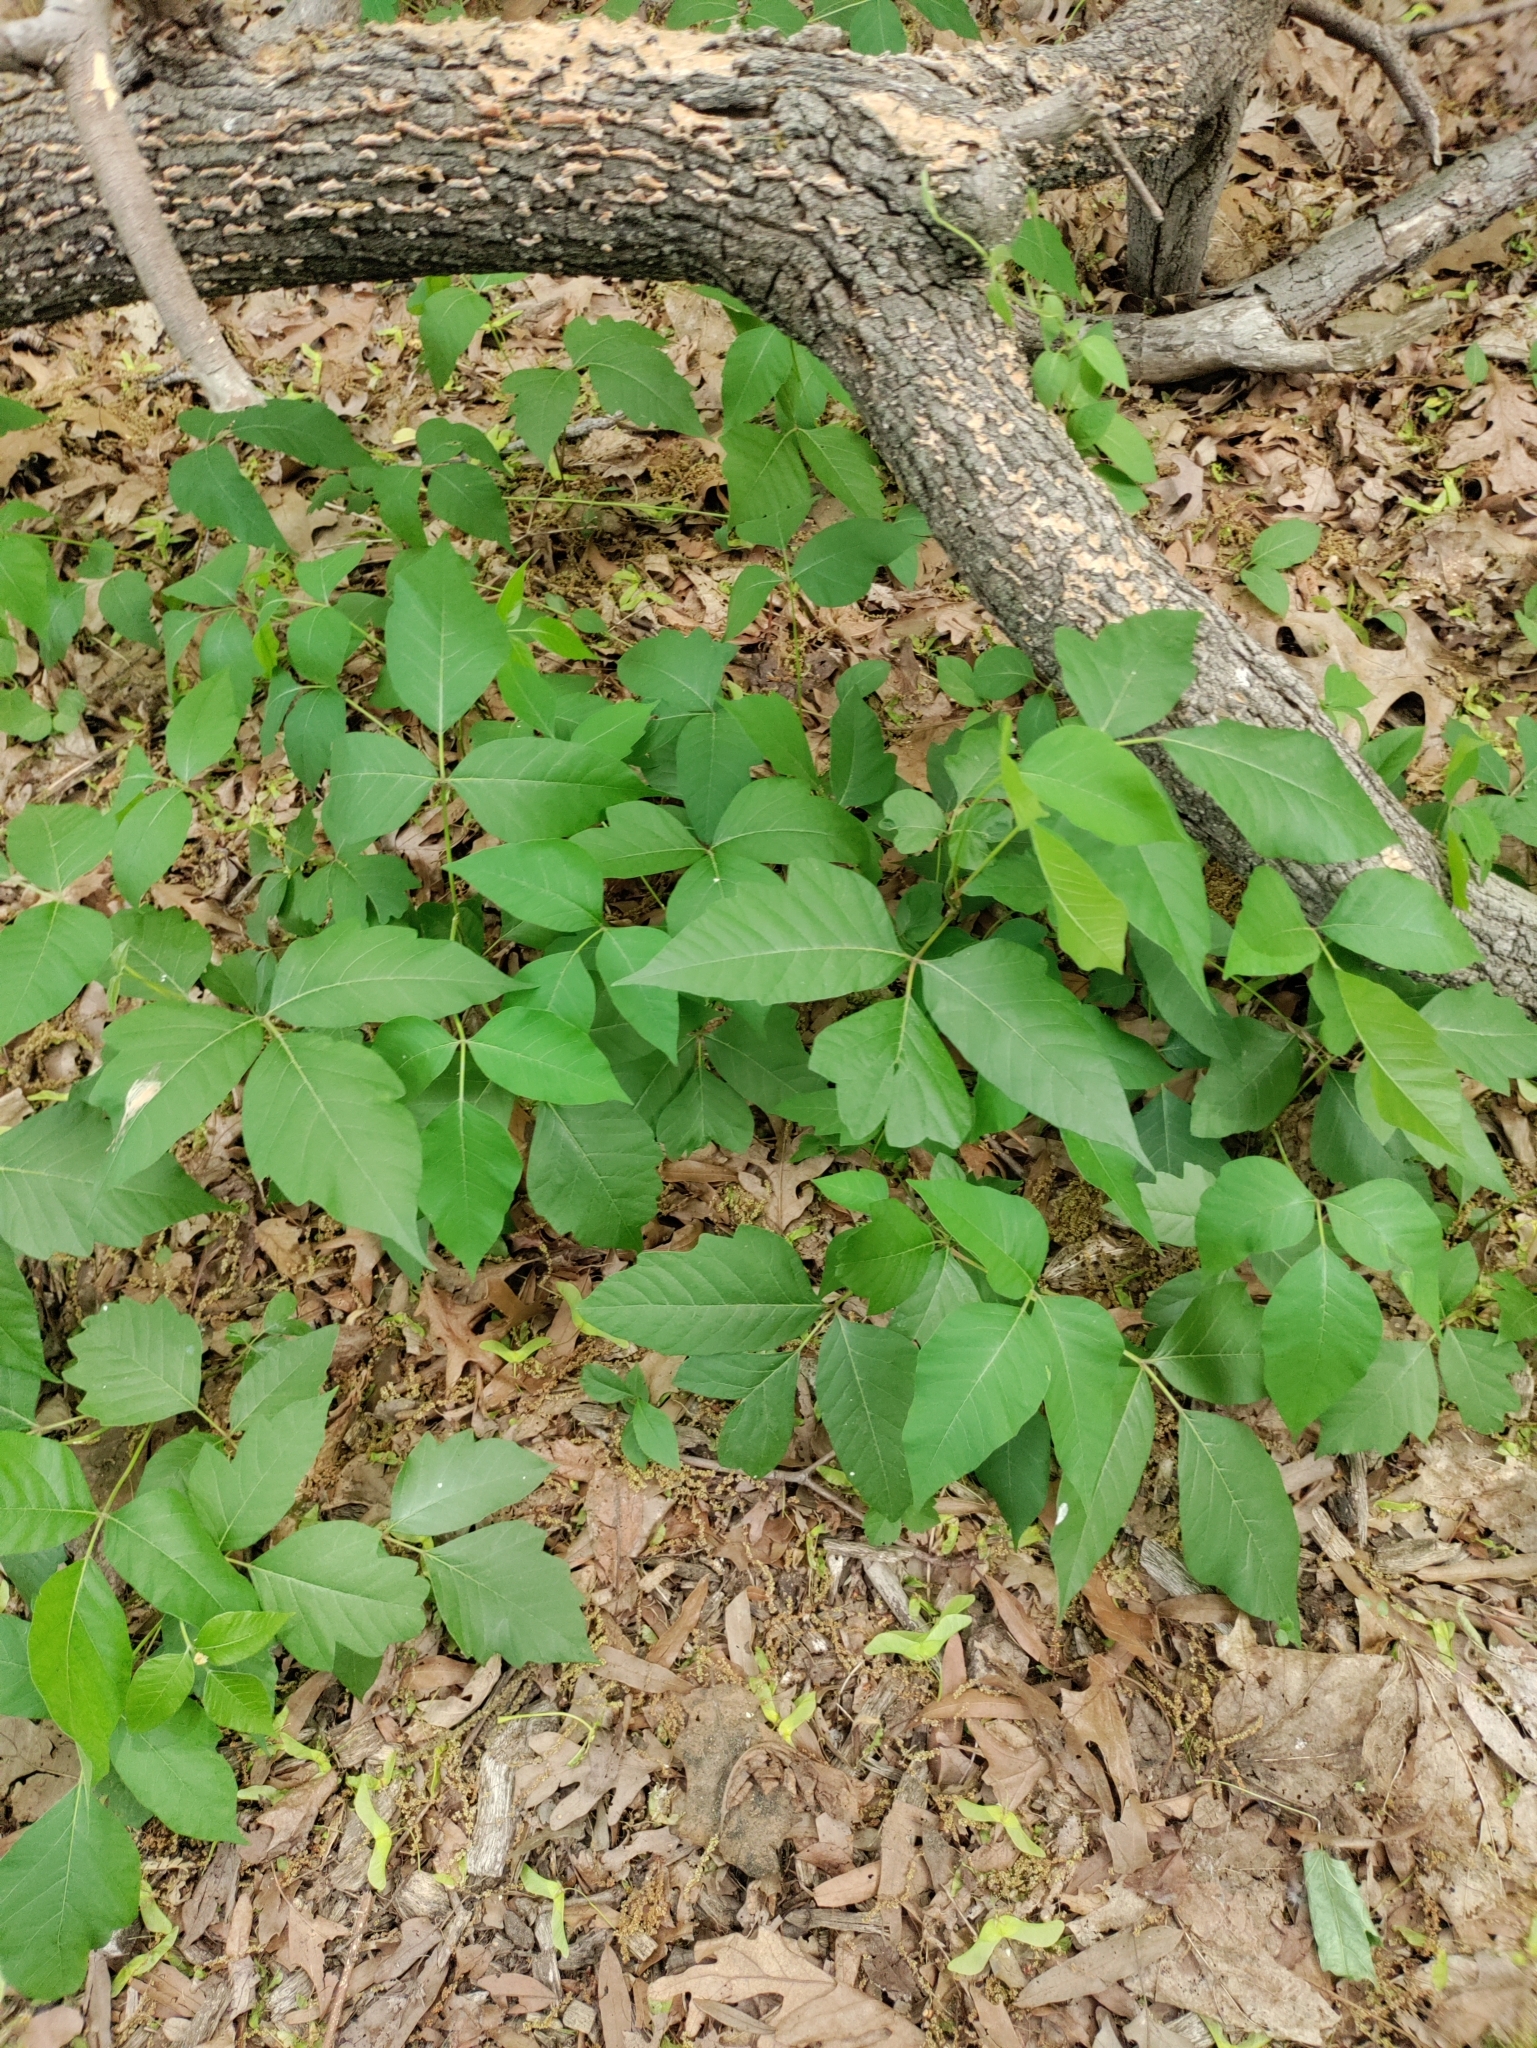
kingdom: Plantae
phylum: Tracheophyta
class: Magnoliopsida
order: Sapindales
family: Anacardiaceae
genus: Toxicodendron
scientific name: Toxicodendron radicans
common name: Poison ivy
